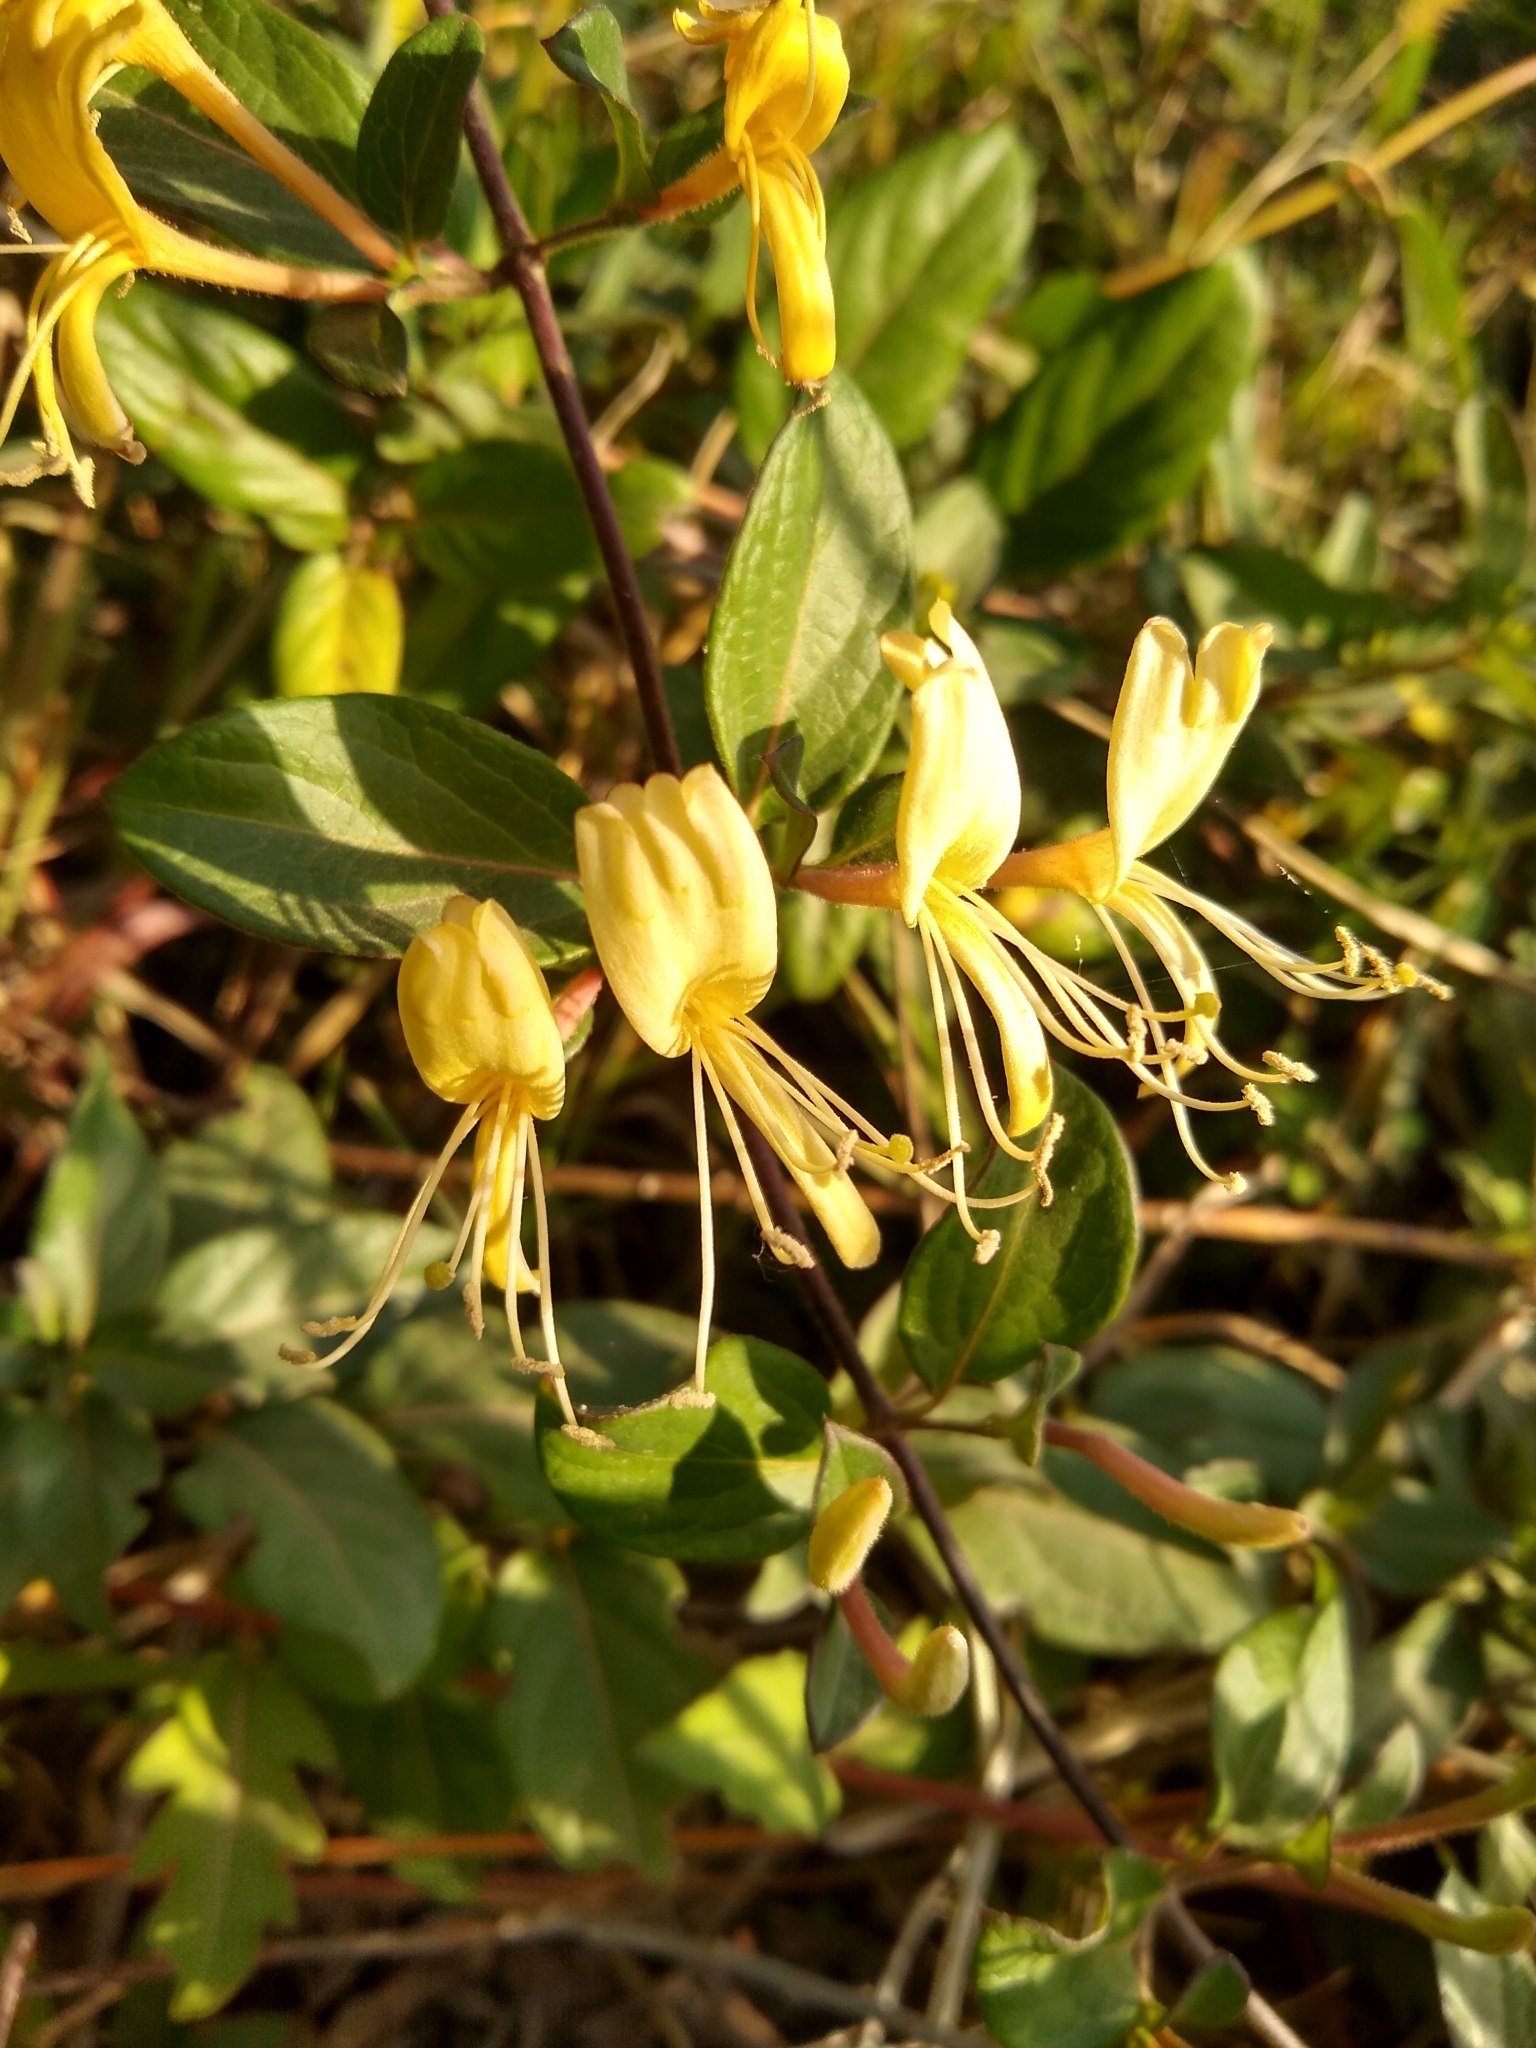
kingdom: Plantae
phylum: Tracheophyta
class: Magnoliopsida
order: Dipsacales
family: Caprifoliaceae
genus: Lonicera
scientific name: Lonicera japonica
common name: Japanese honeysuckle
